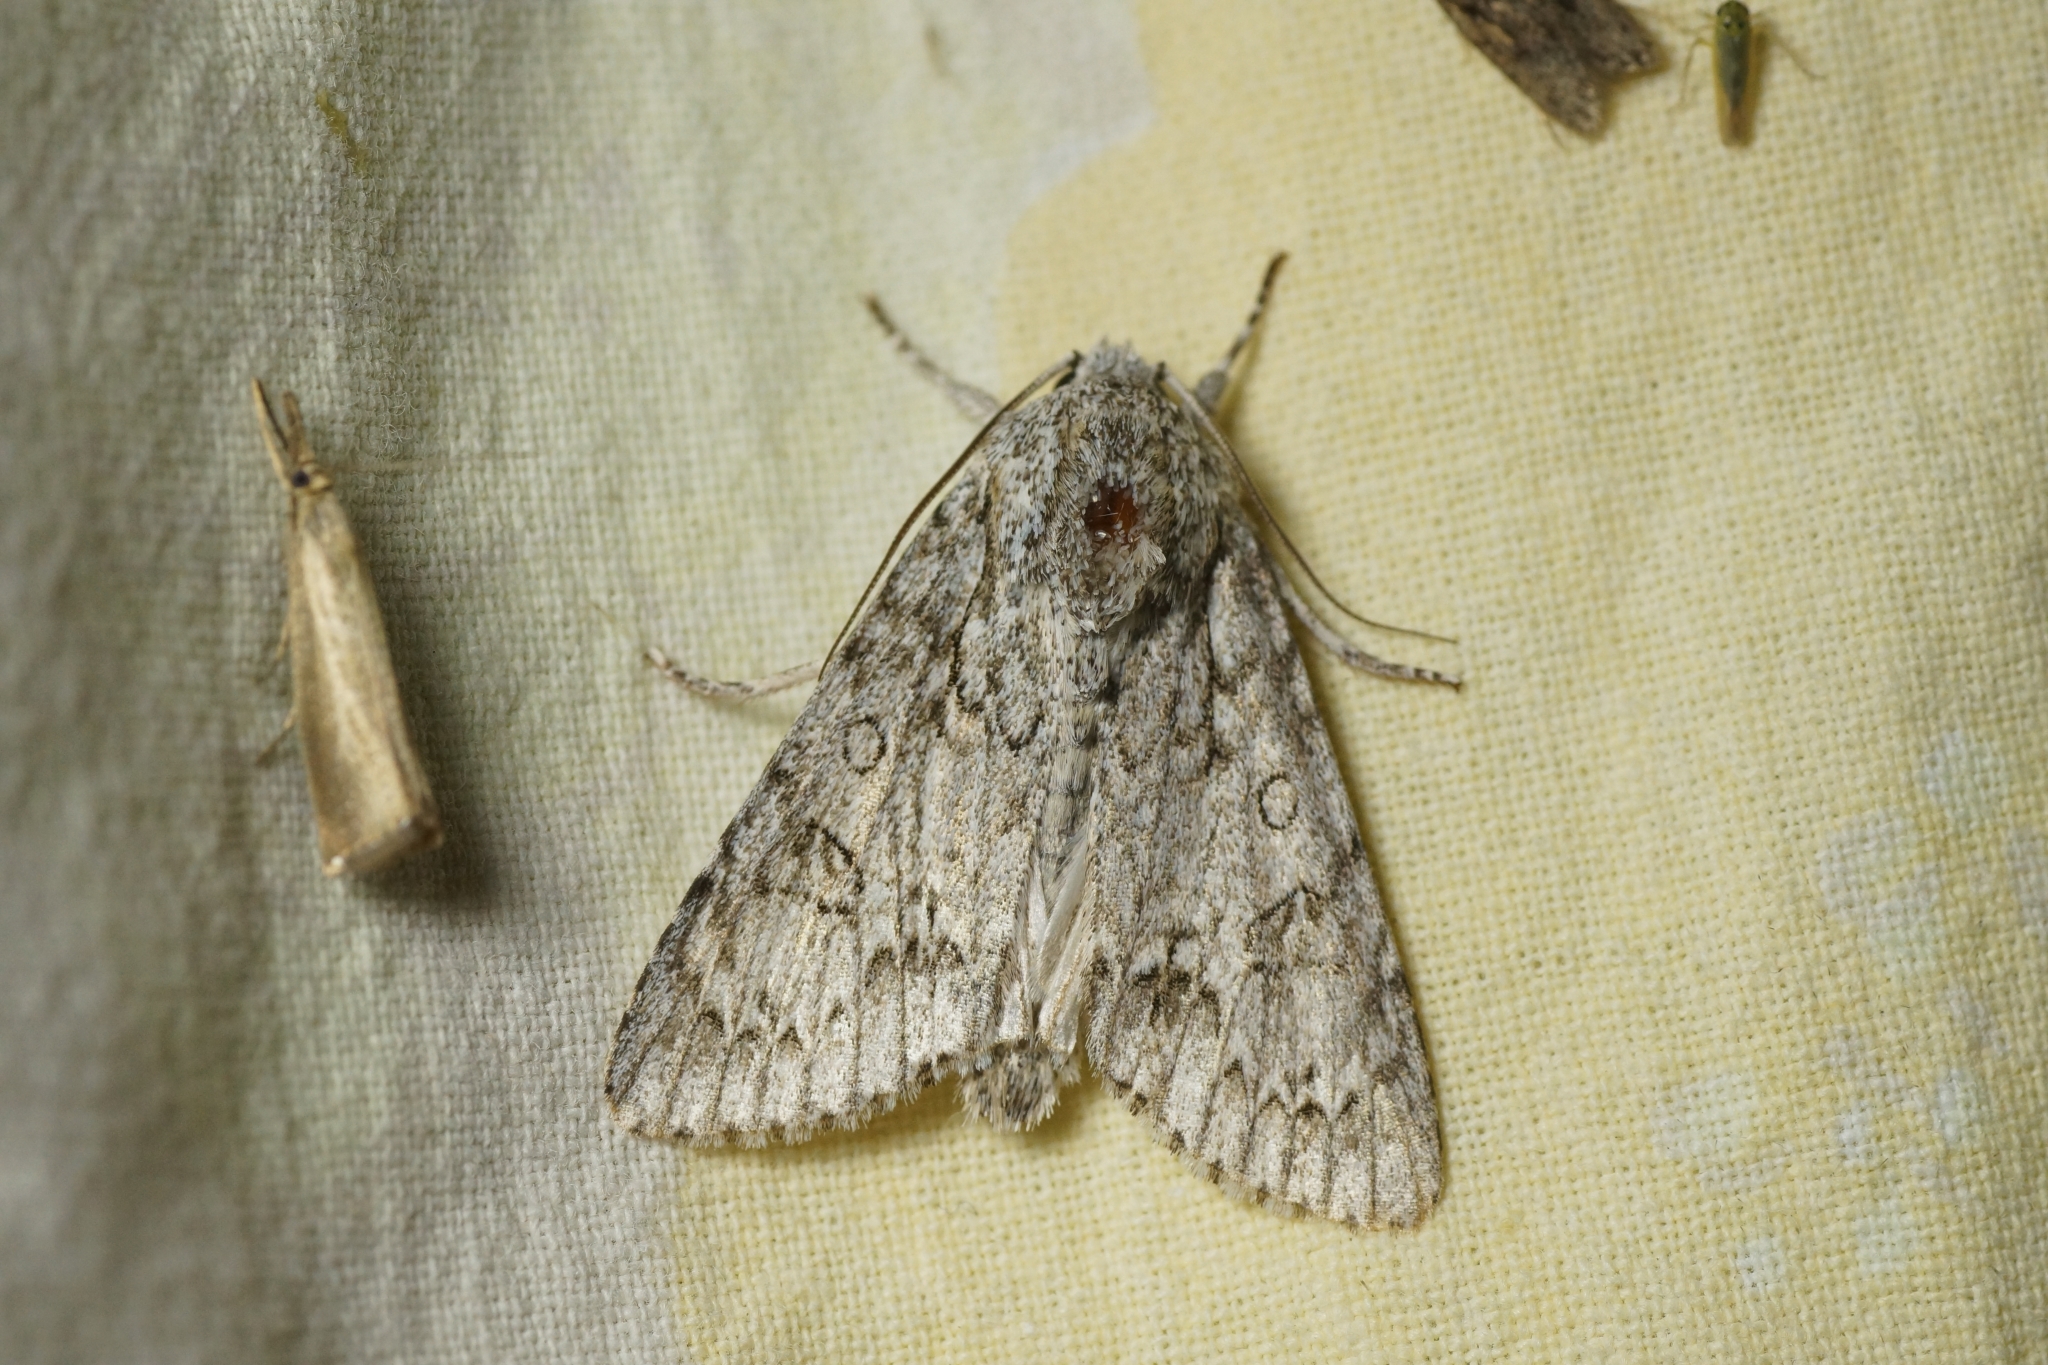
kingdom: Animalia
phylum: Arthropoda
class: Insecta
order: Lepidoptera
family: Noctuidae
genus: Acronicta
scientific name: Acronicta aceris
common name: Sycamore
